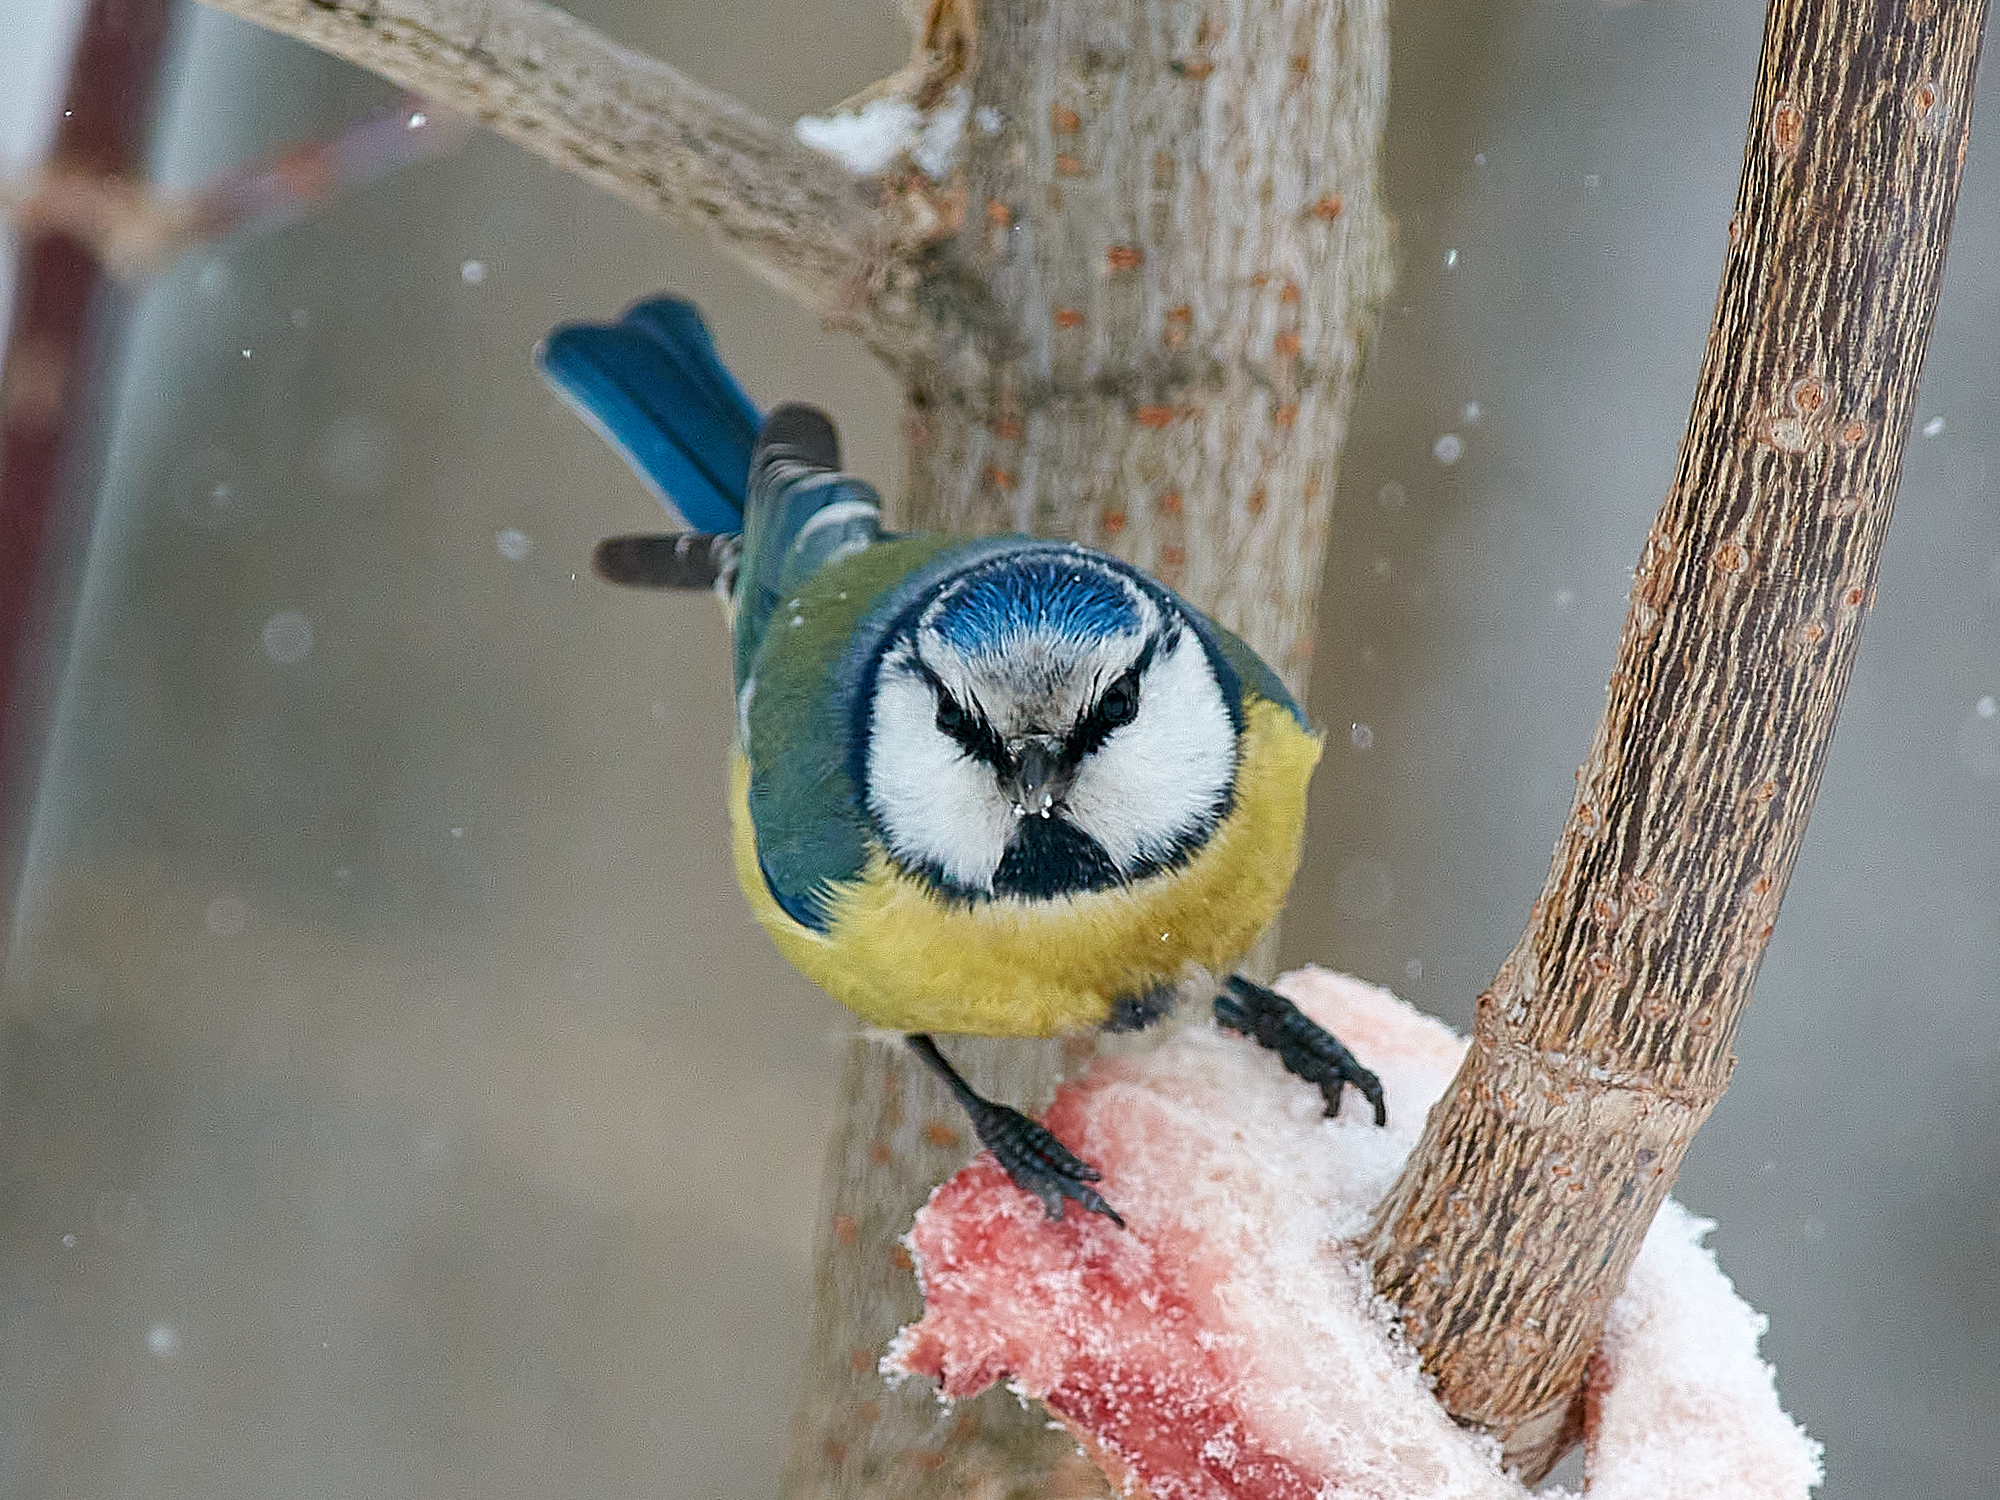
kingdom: Animalia
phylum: Chordata
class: Aves
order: Passeriformes
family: Paridae
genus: Cyanistes
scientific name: Cyanistes caeruleus
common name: Eurasian blue tit
